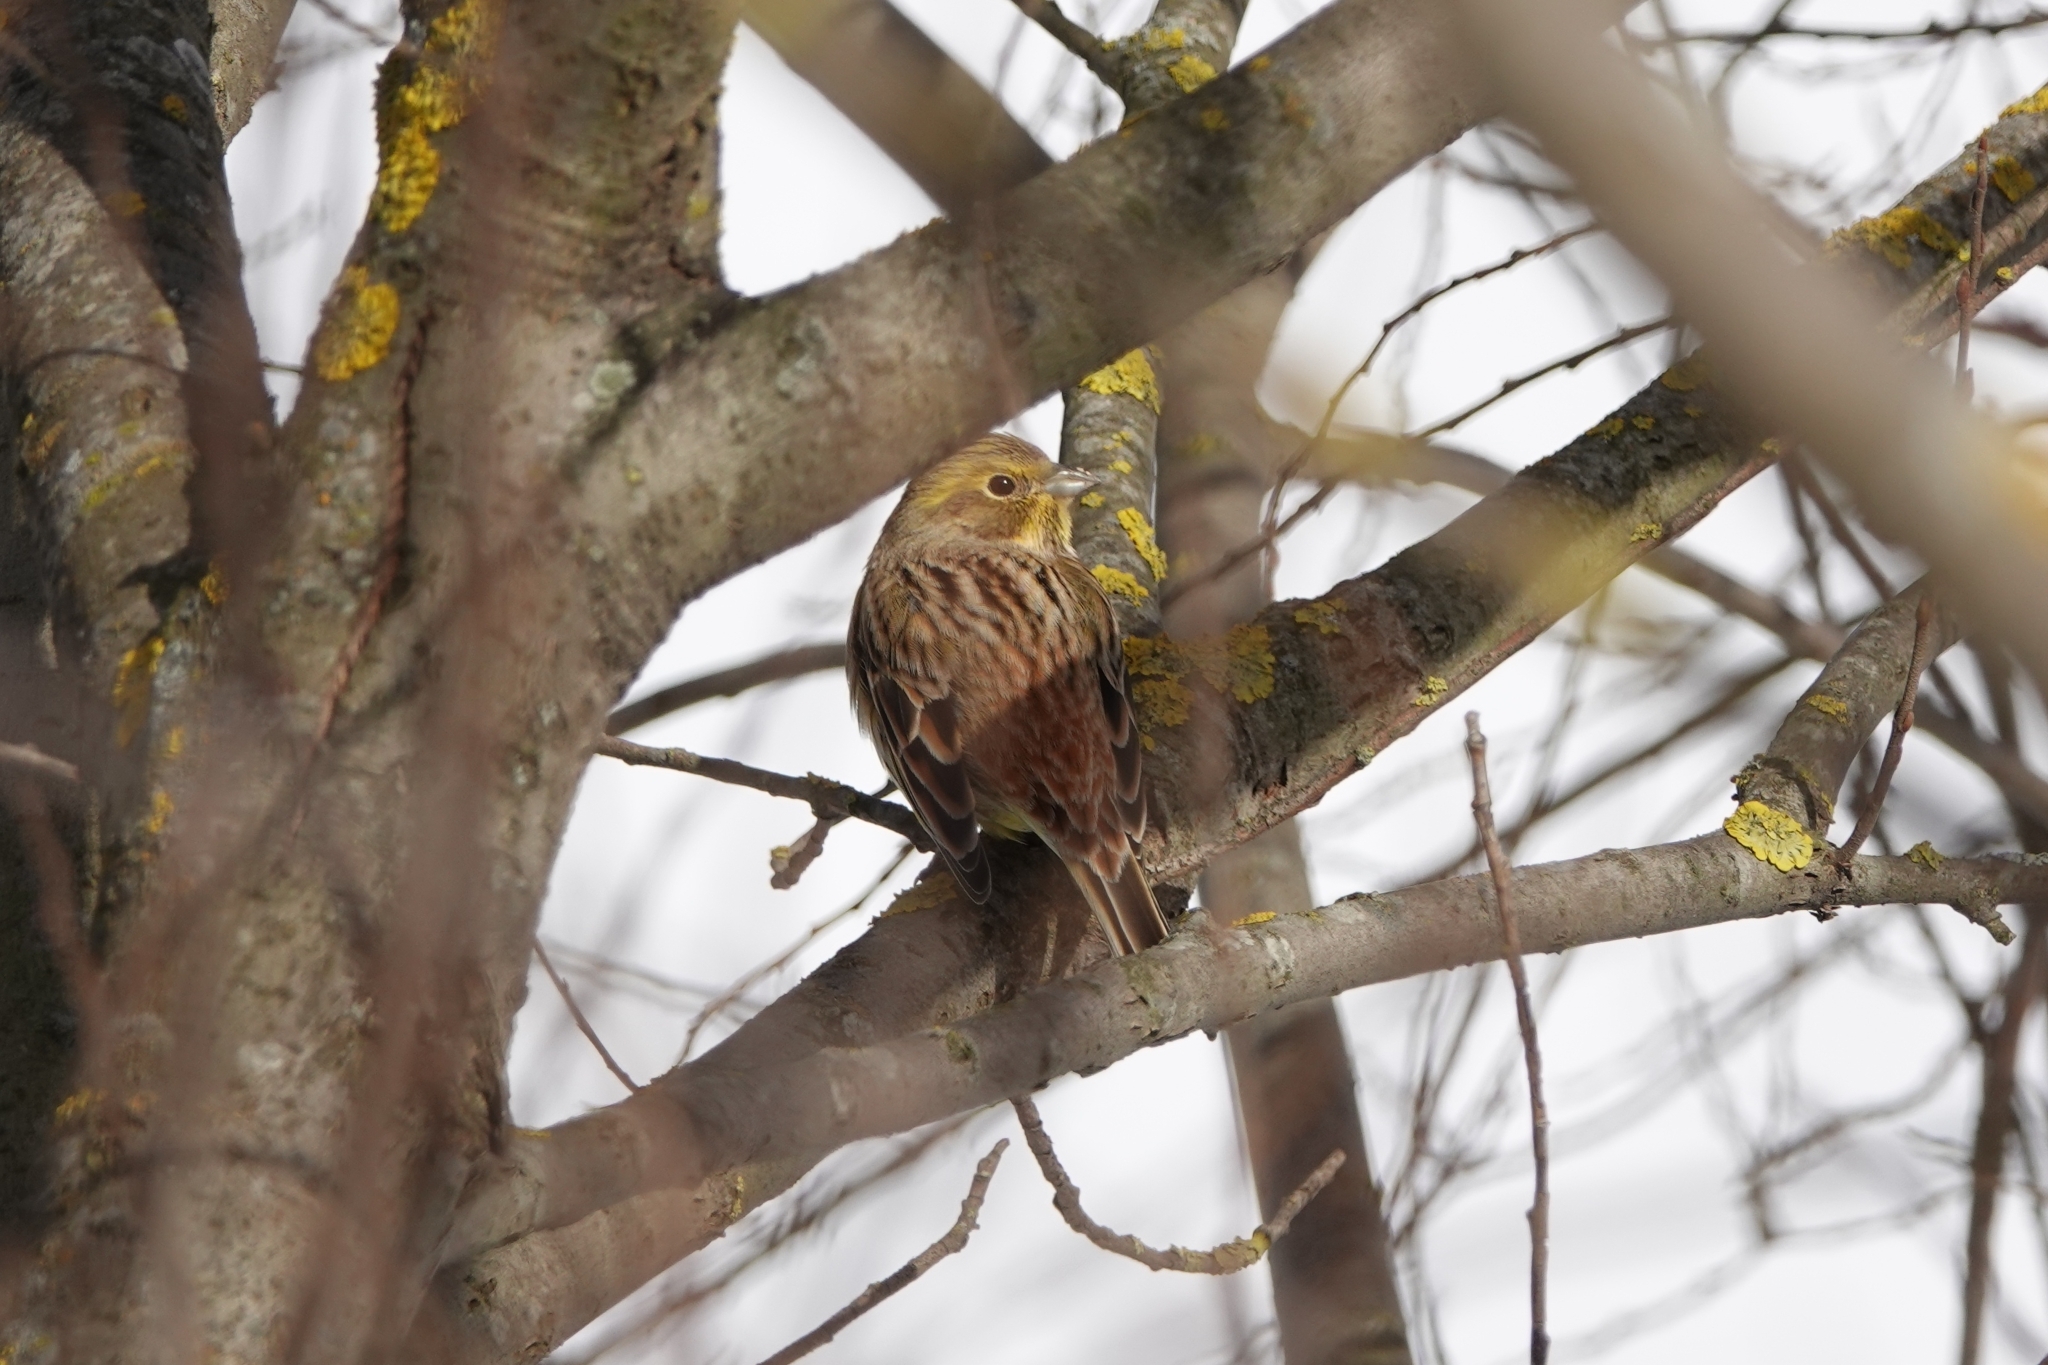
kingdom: Animalia
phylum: Chordata
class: Aves
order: Passeriformes
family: Emberizidae
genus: Emberiza
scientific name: Emberiza citrinella
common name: Yellowhammer
